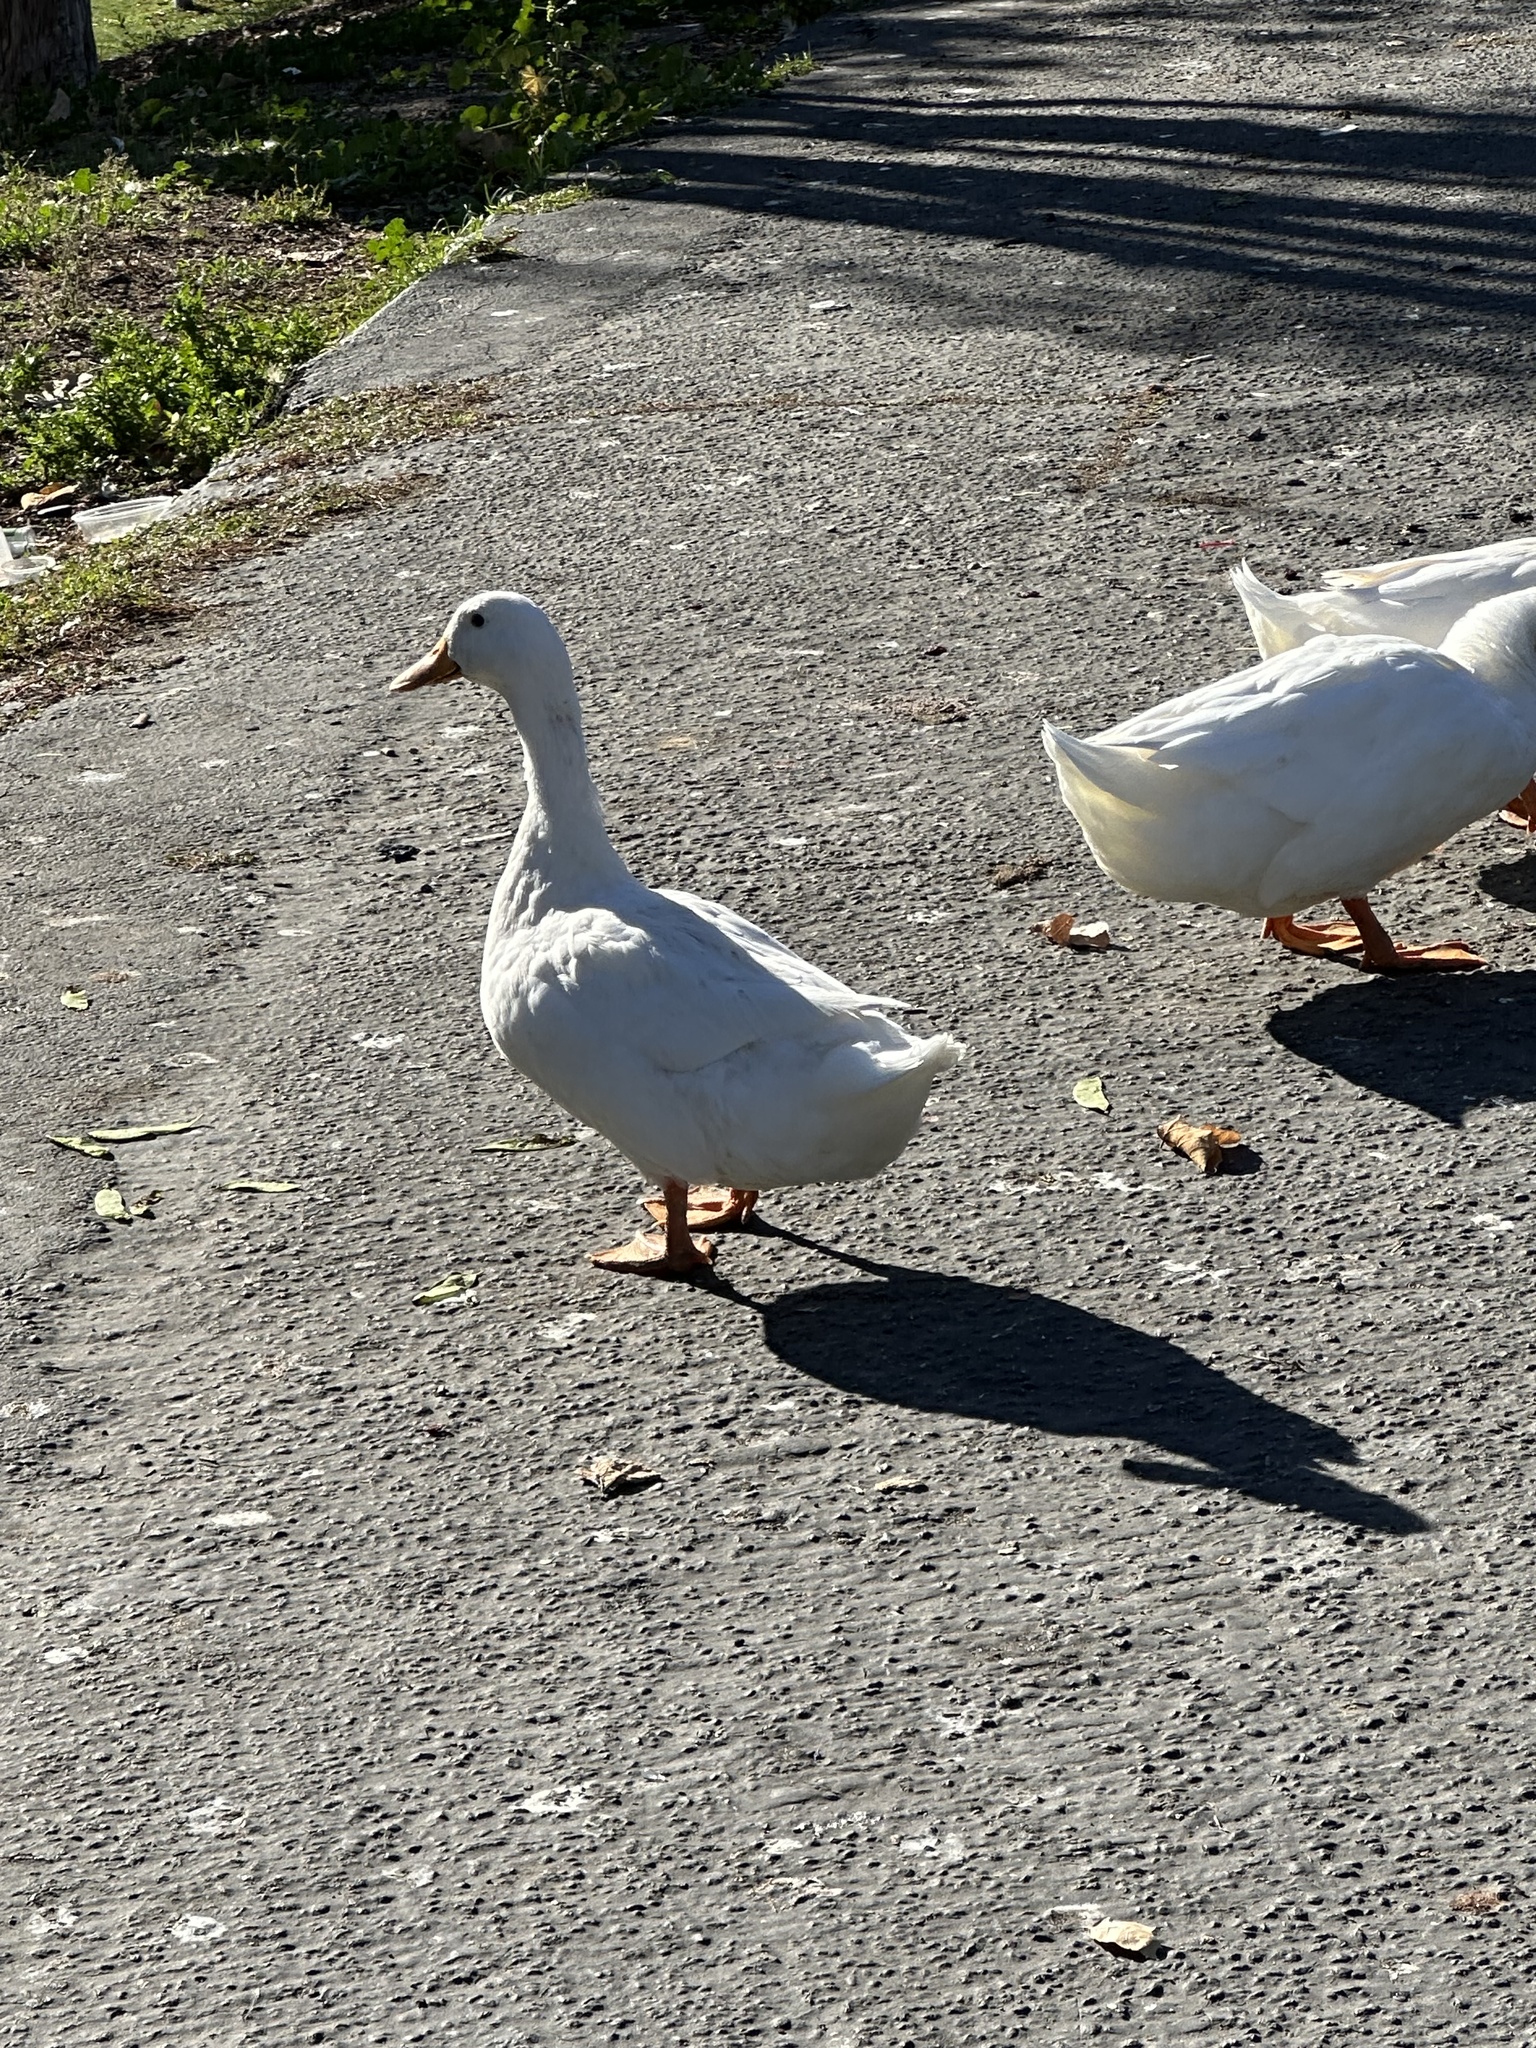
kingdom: Animalia
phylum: Chordata
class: Aves
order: Anseriformes
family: Anatidae
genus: Anas
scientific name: Anas platyrhynchos
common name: Mallard
